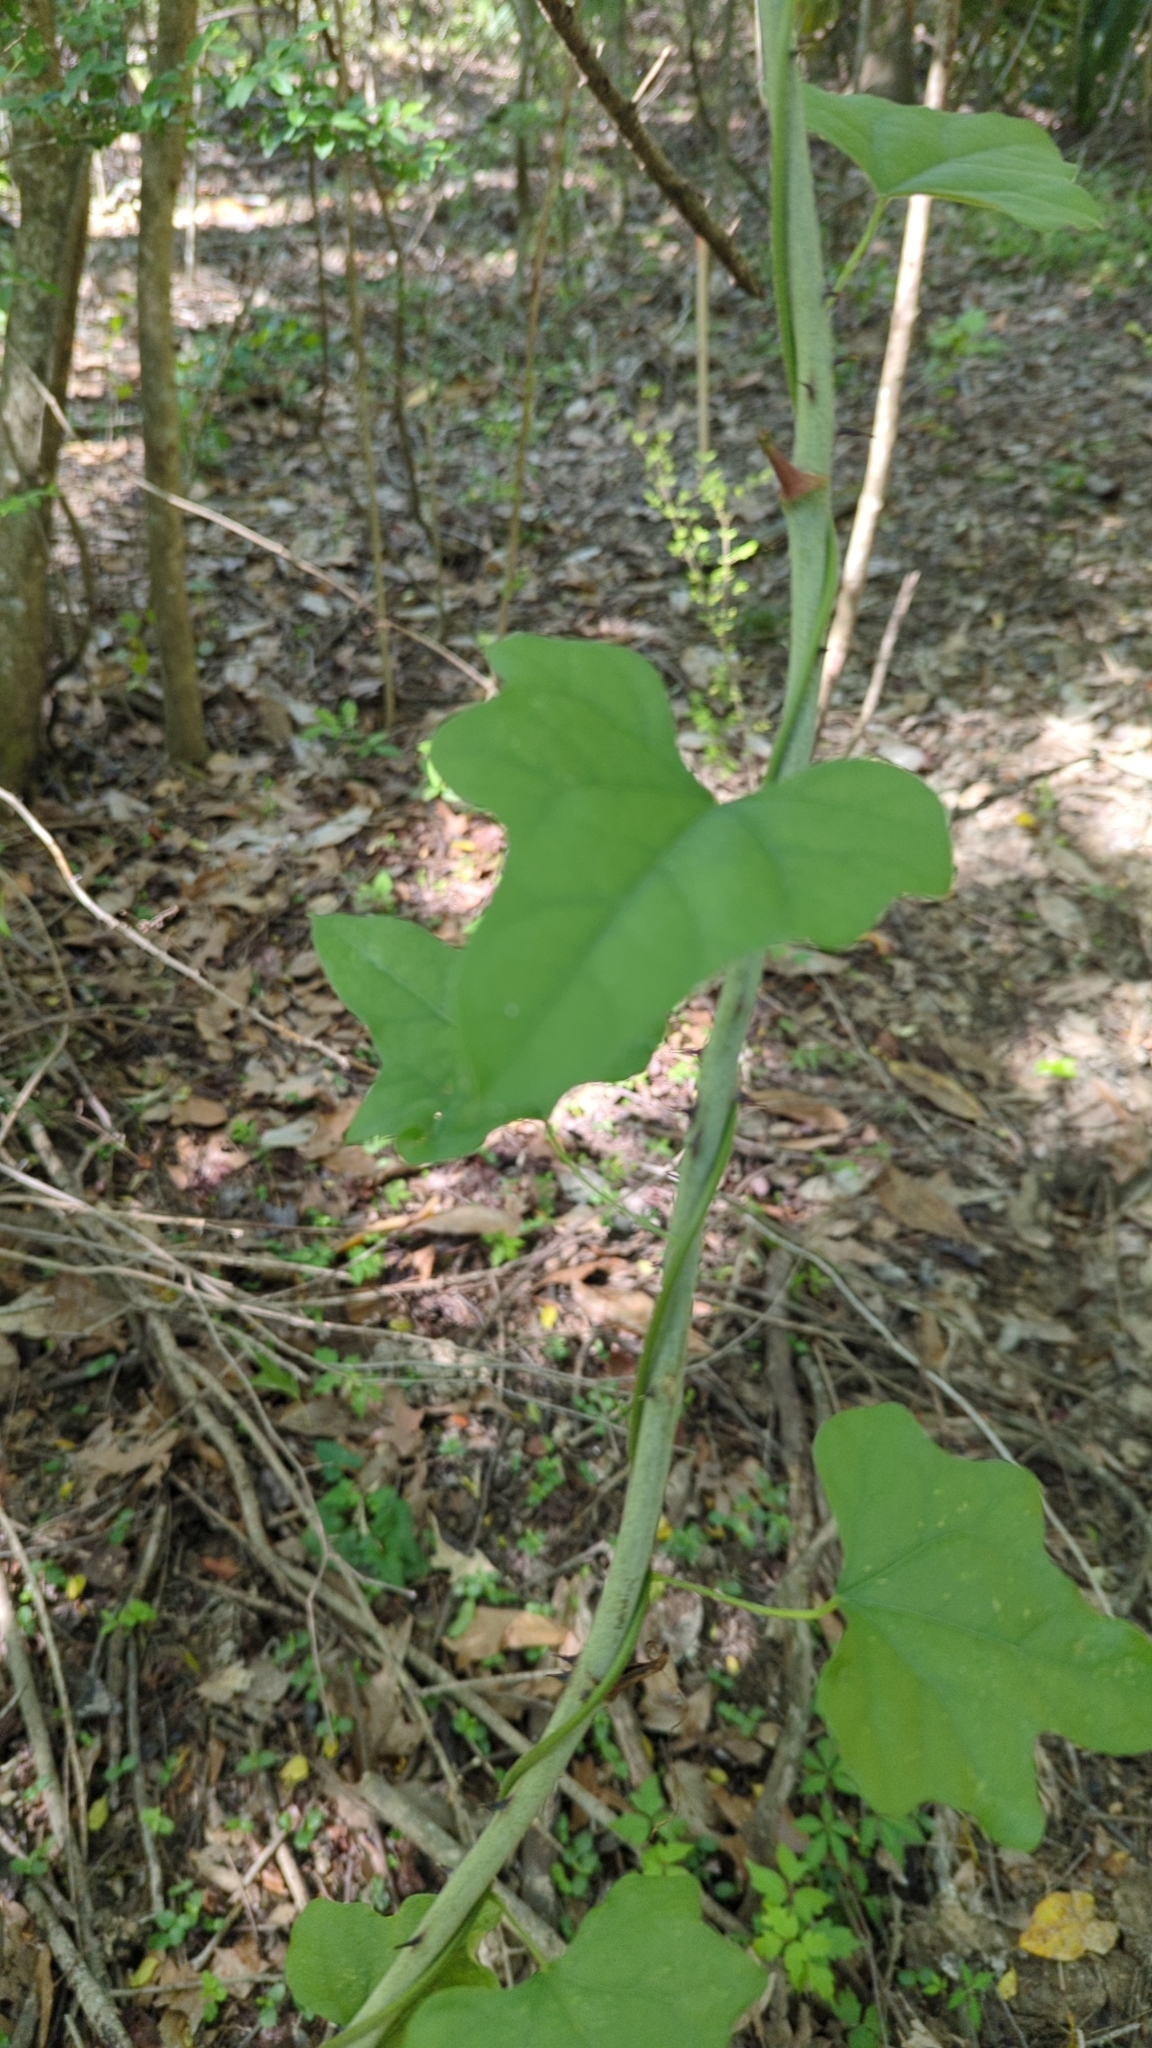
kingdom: Plantae
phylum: Tracheophyta
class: Magnoliopsida
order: Ranunculales
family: Menispermaceae
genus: Cocculus
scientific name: Cocculus carolinus
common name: Carolina moonseed
